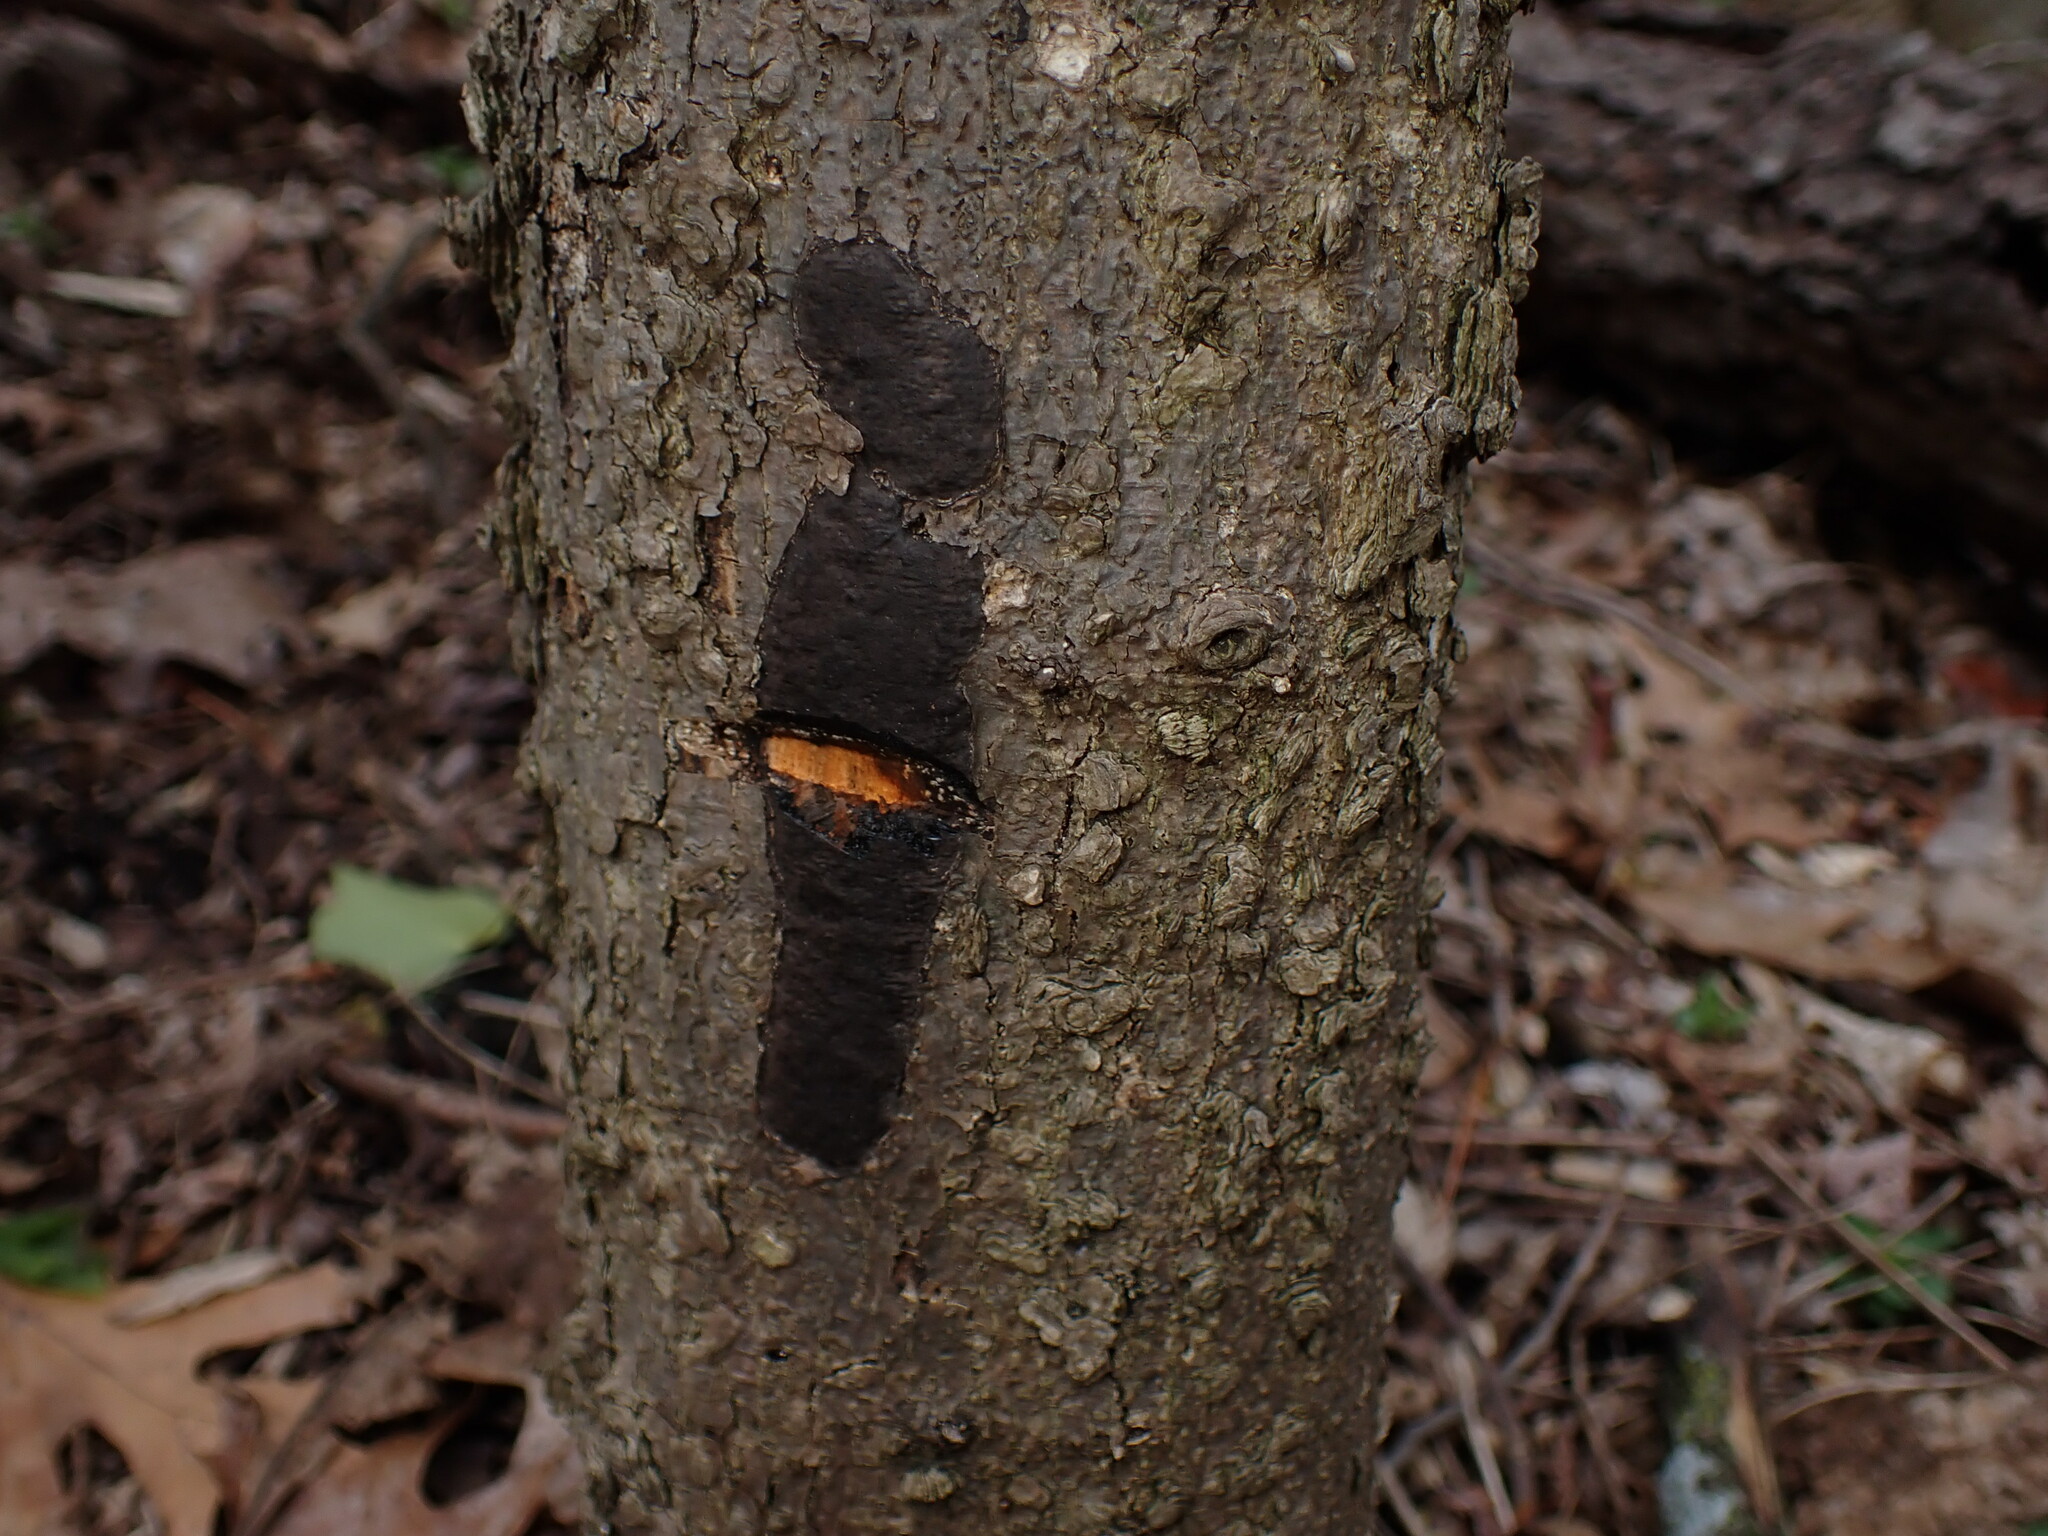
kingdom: Fungi
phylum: Ascomycota
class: Sordariomycetes
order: Xylariales
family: Graphostromataceae
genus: Camillea
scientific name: Camillea tinctor
